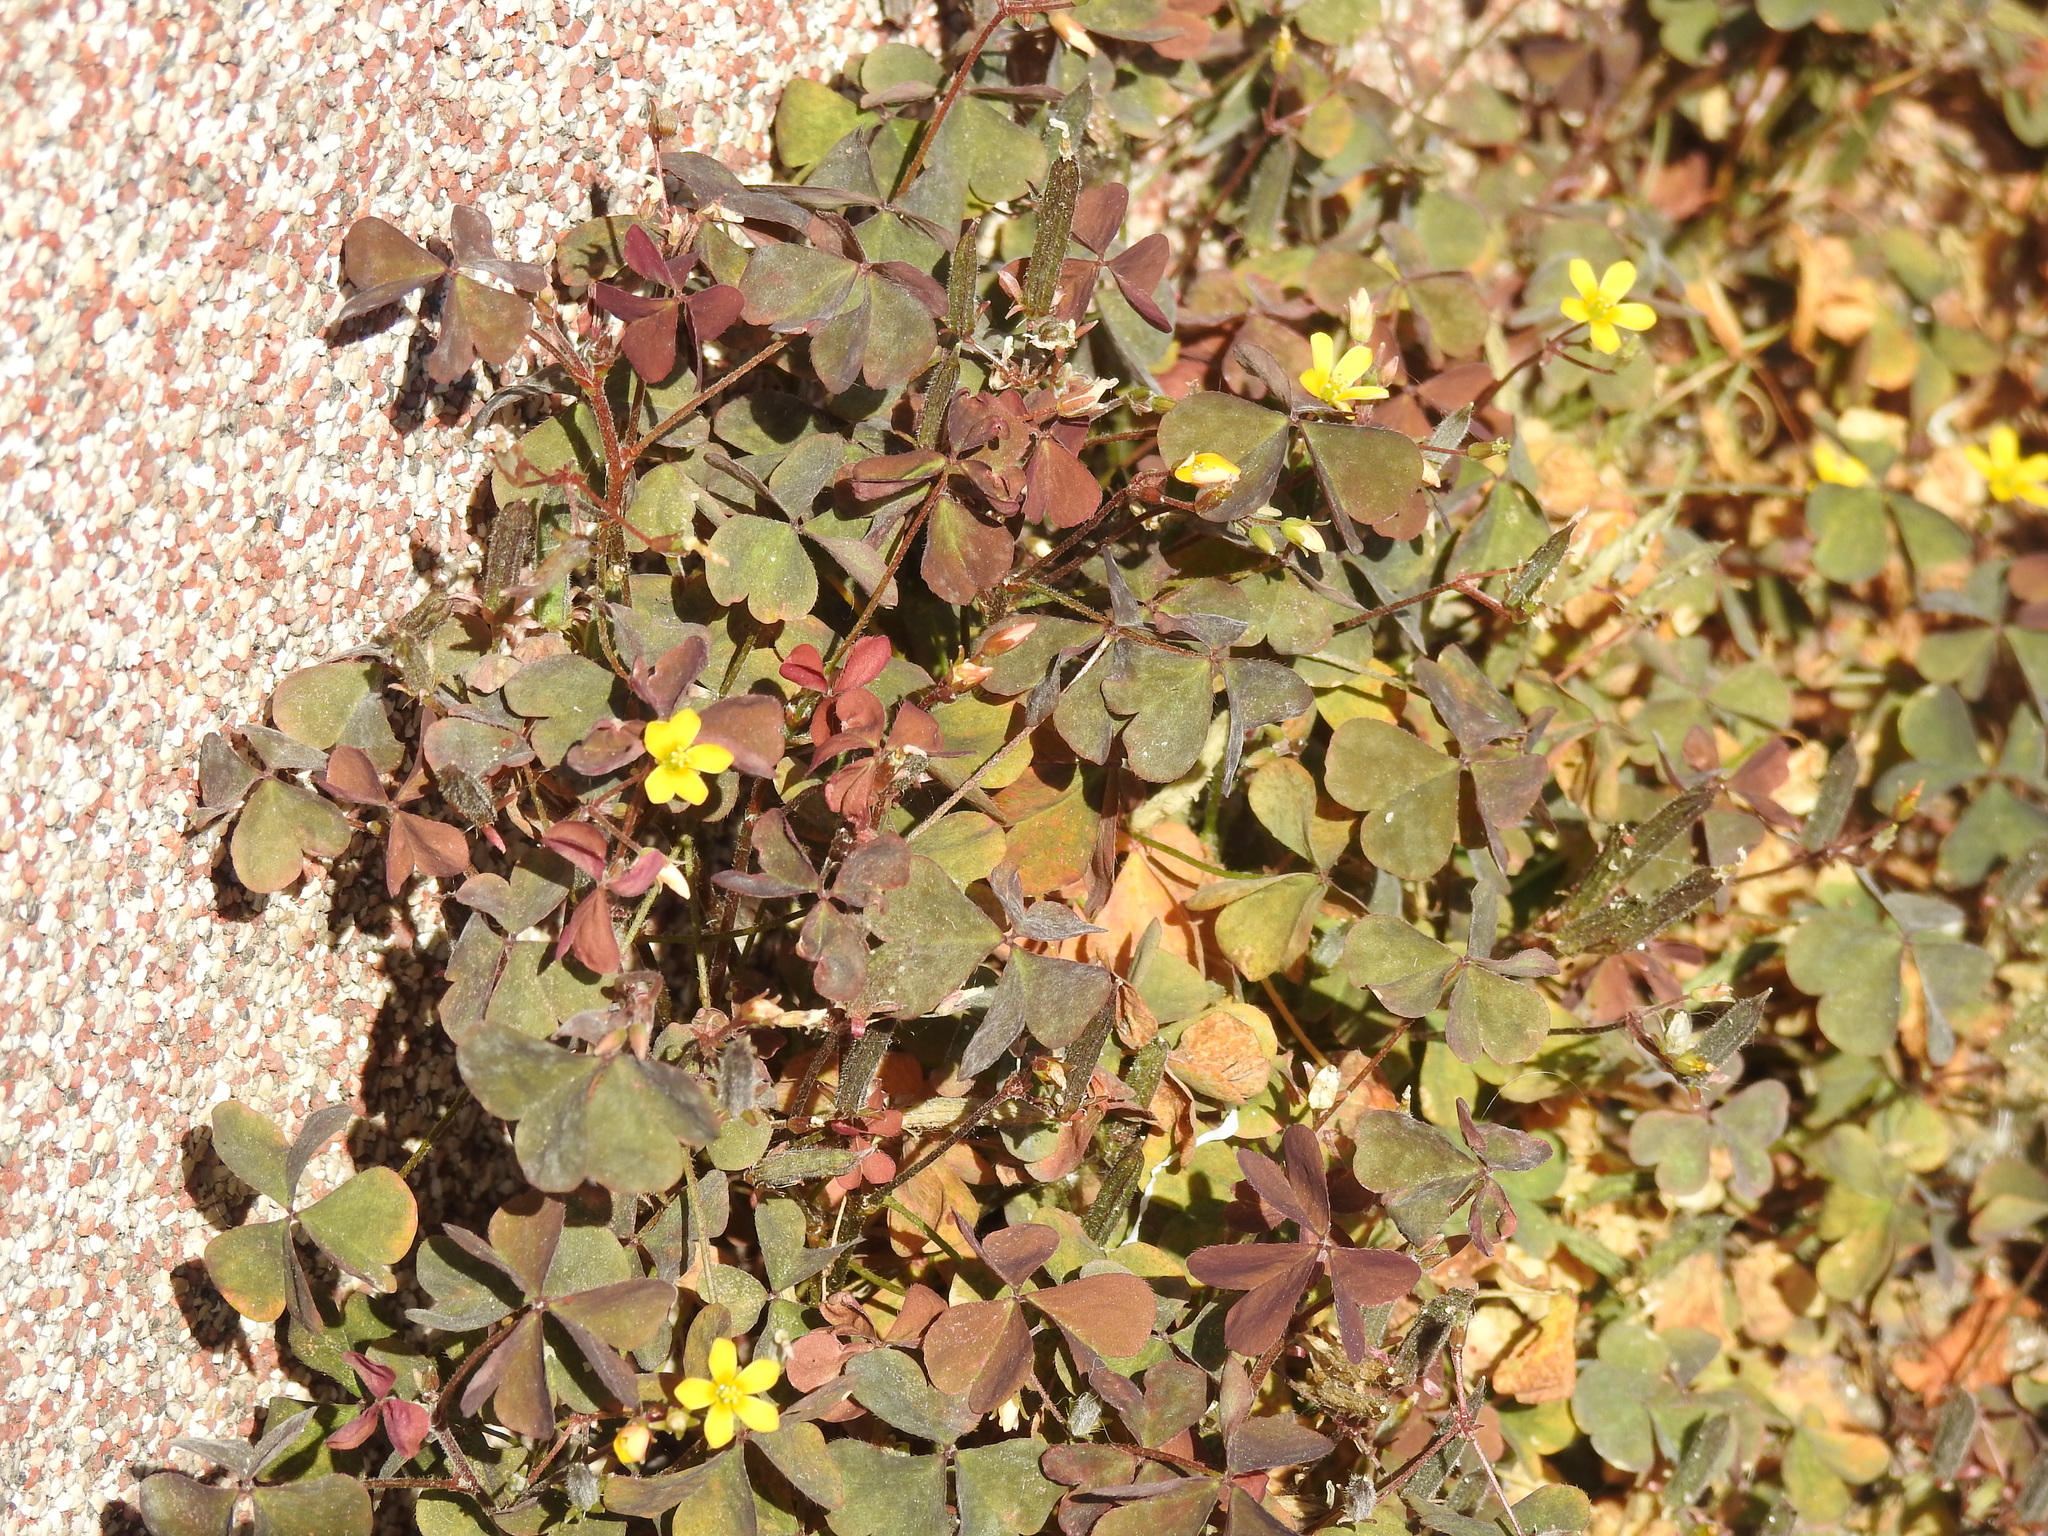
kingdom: Plantae
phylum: Tracheophyta
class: Magnoliopsida
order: Oxalidales
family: Oxalidaceae
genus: Oxalis
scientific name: Oxalis corniculata
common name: Procumbent yellow-sorrel
